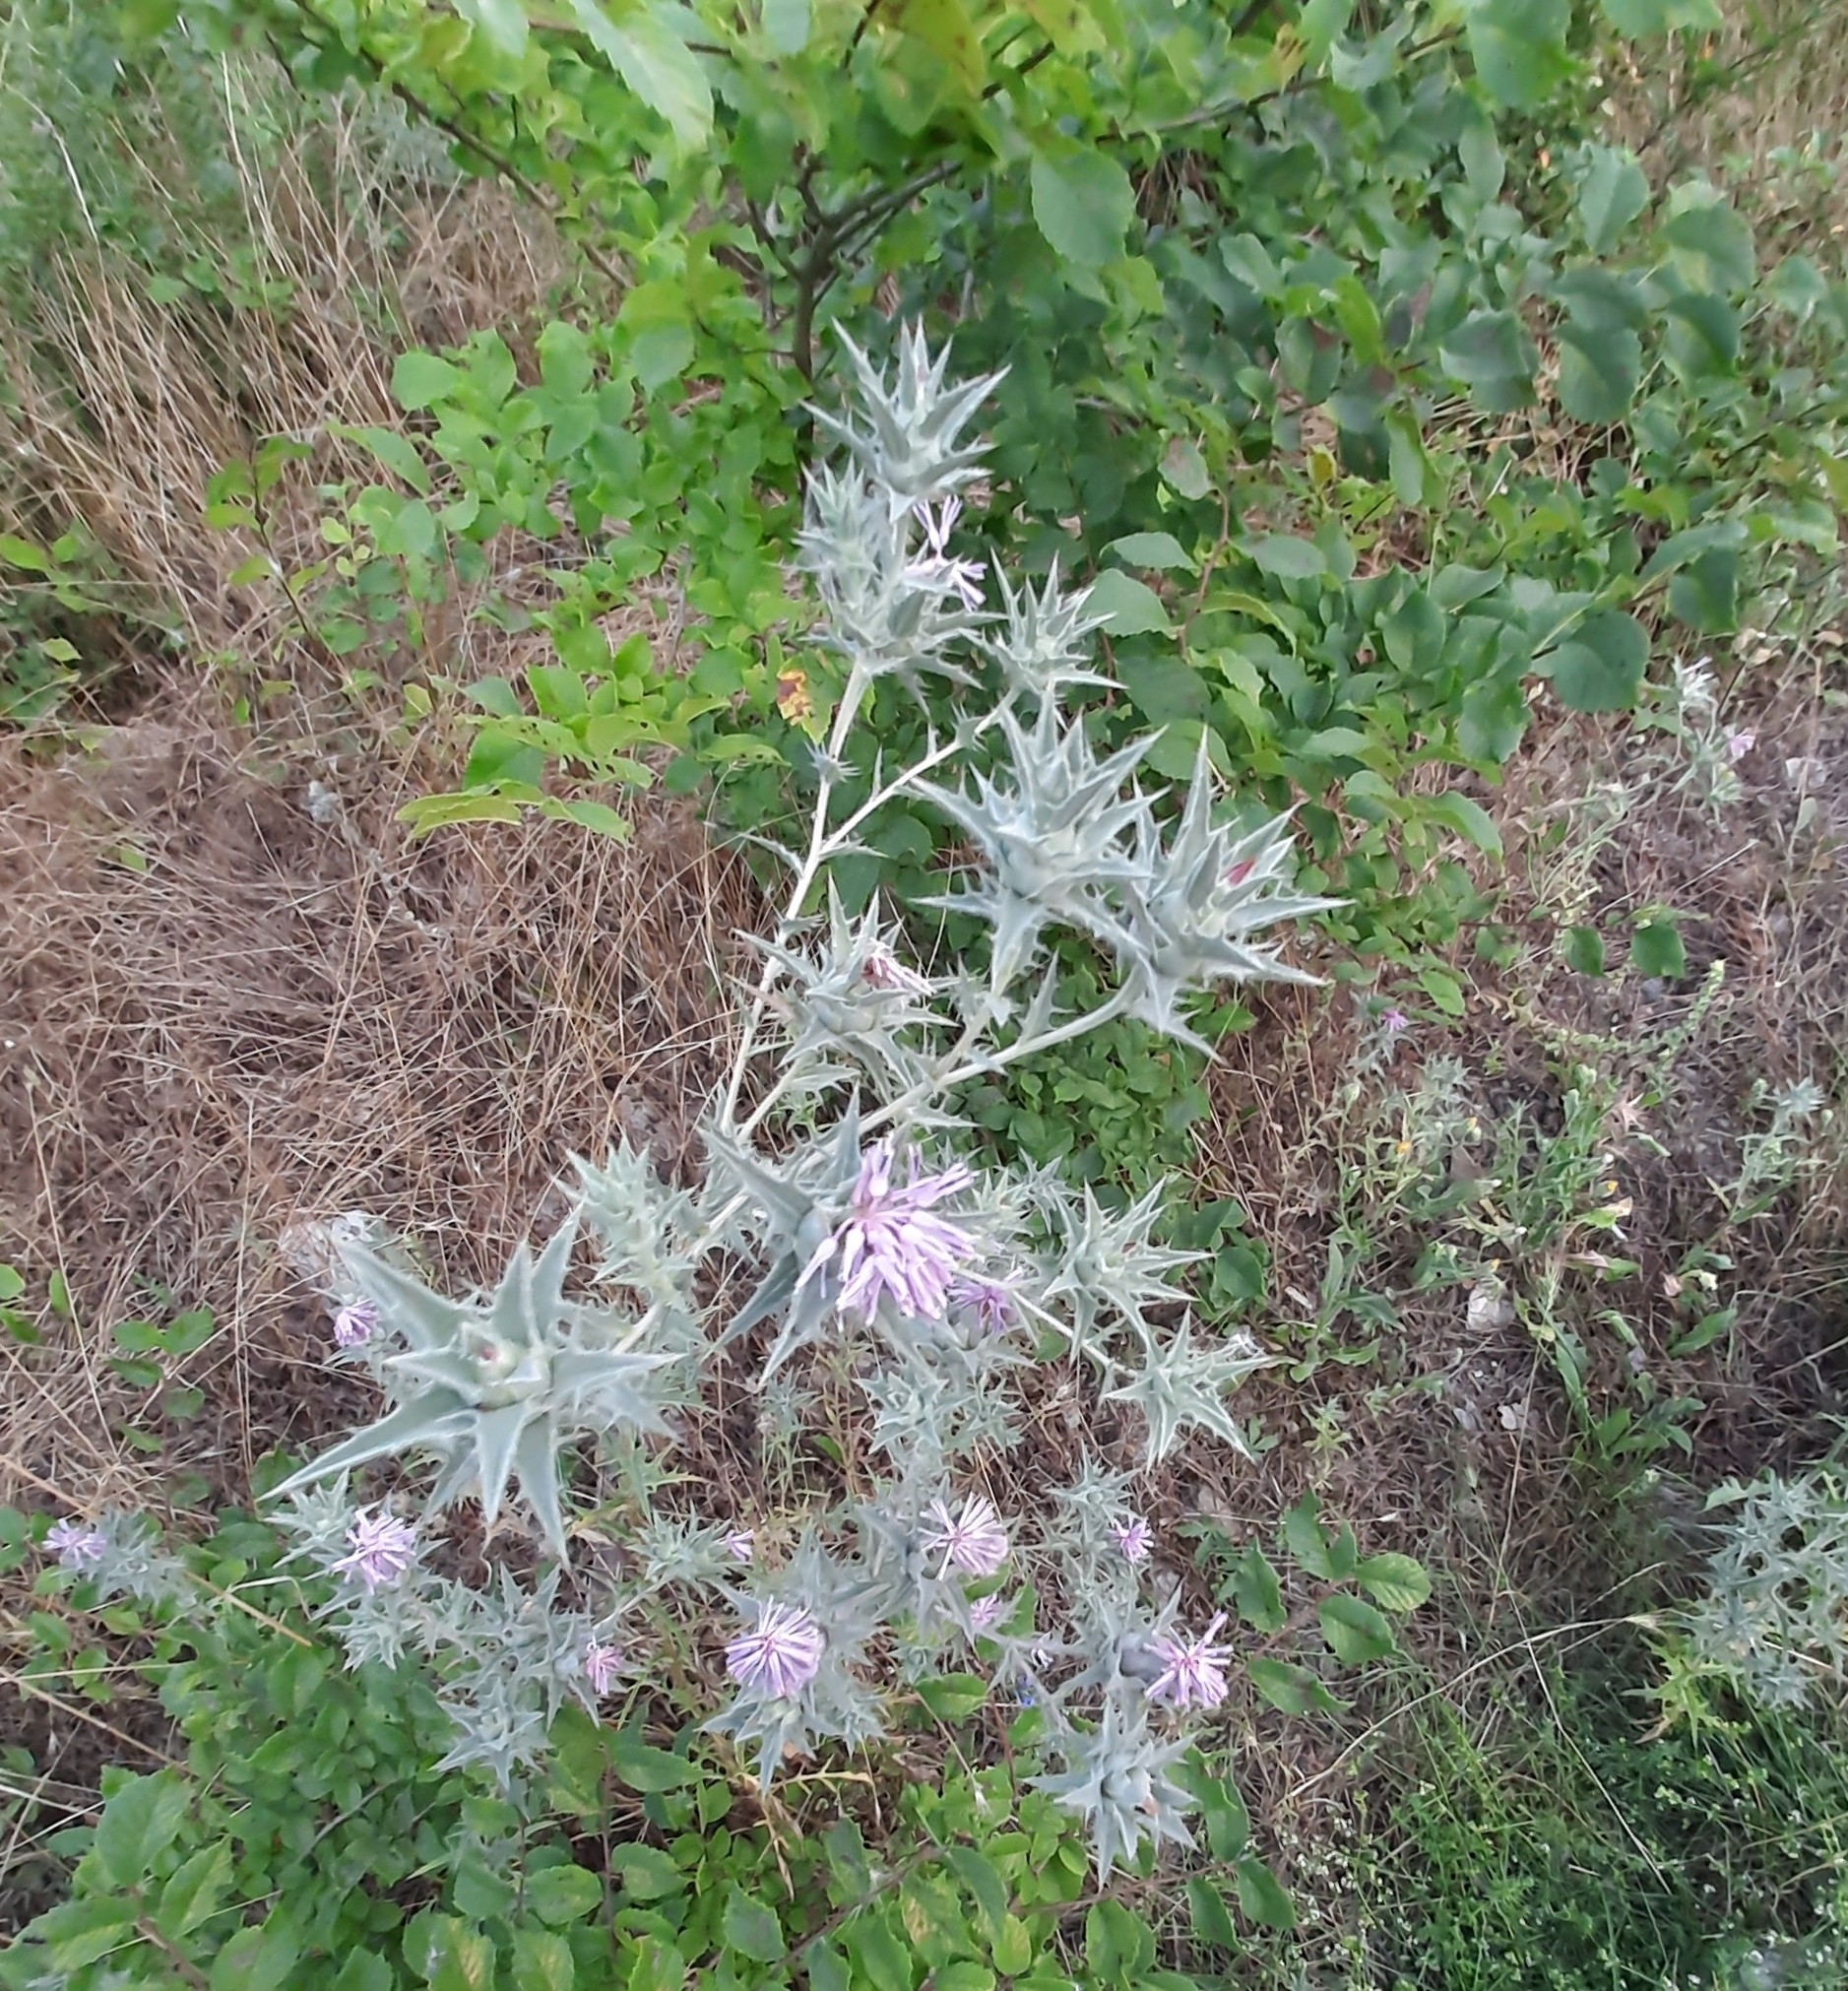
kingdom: Plantae
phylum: Tracheophyta
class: Magnoliopsida
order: Asterales
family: Asteraceae
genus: Carthamus
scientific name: Carthamus glaucus
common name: Mediterranean thistle
